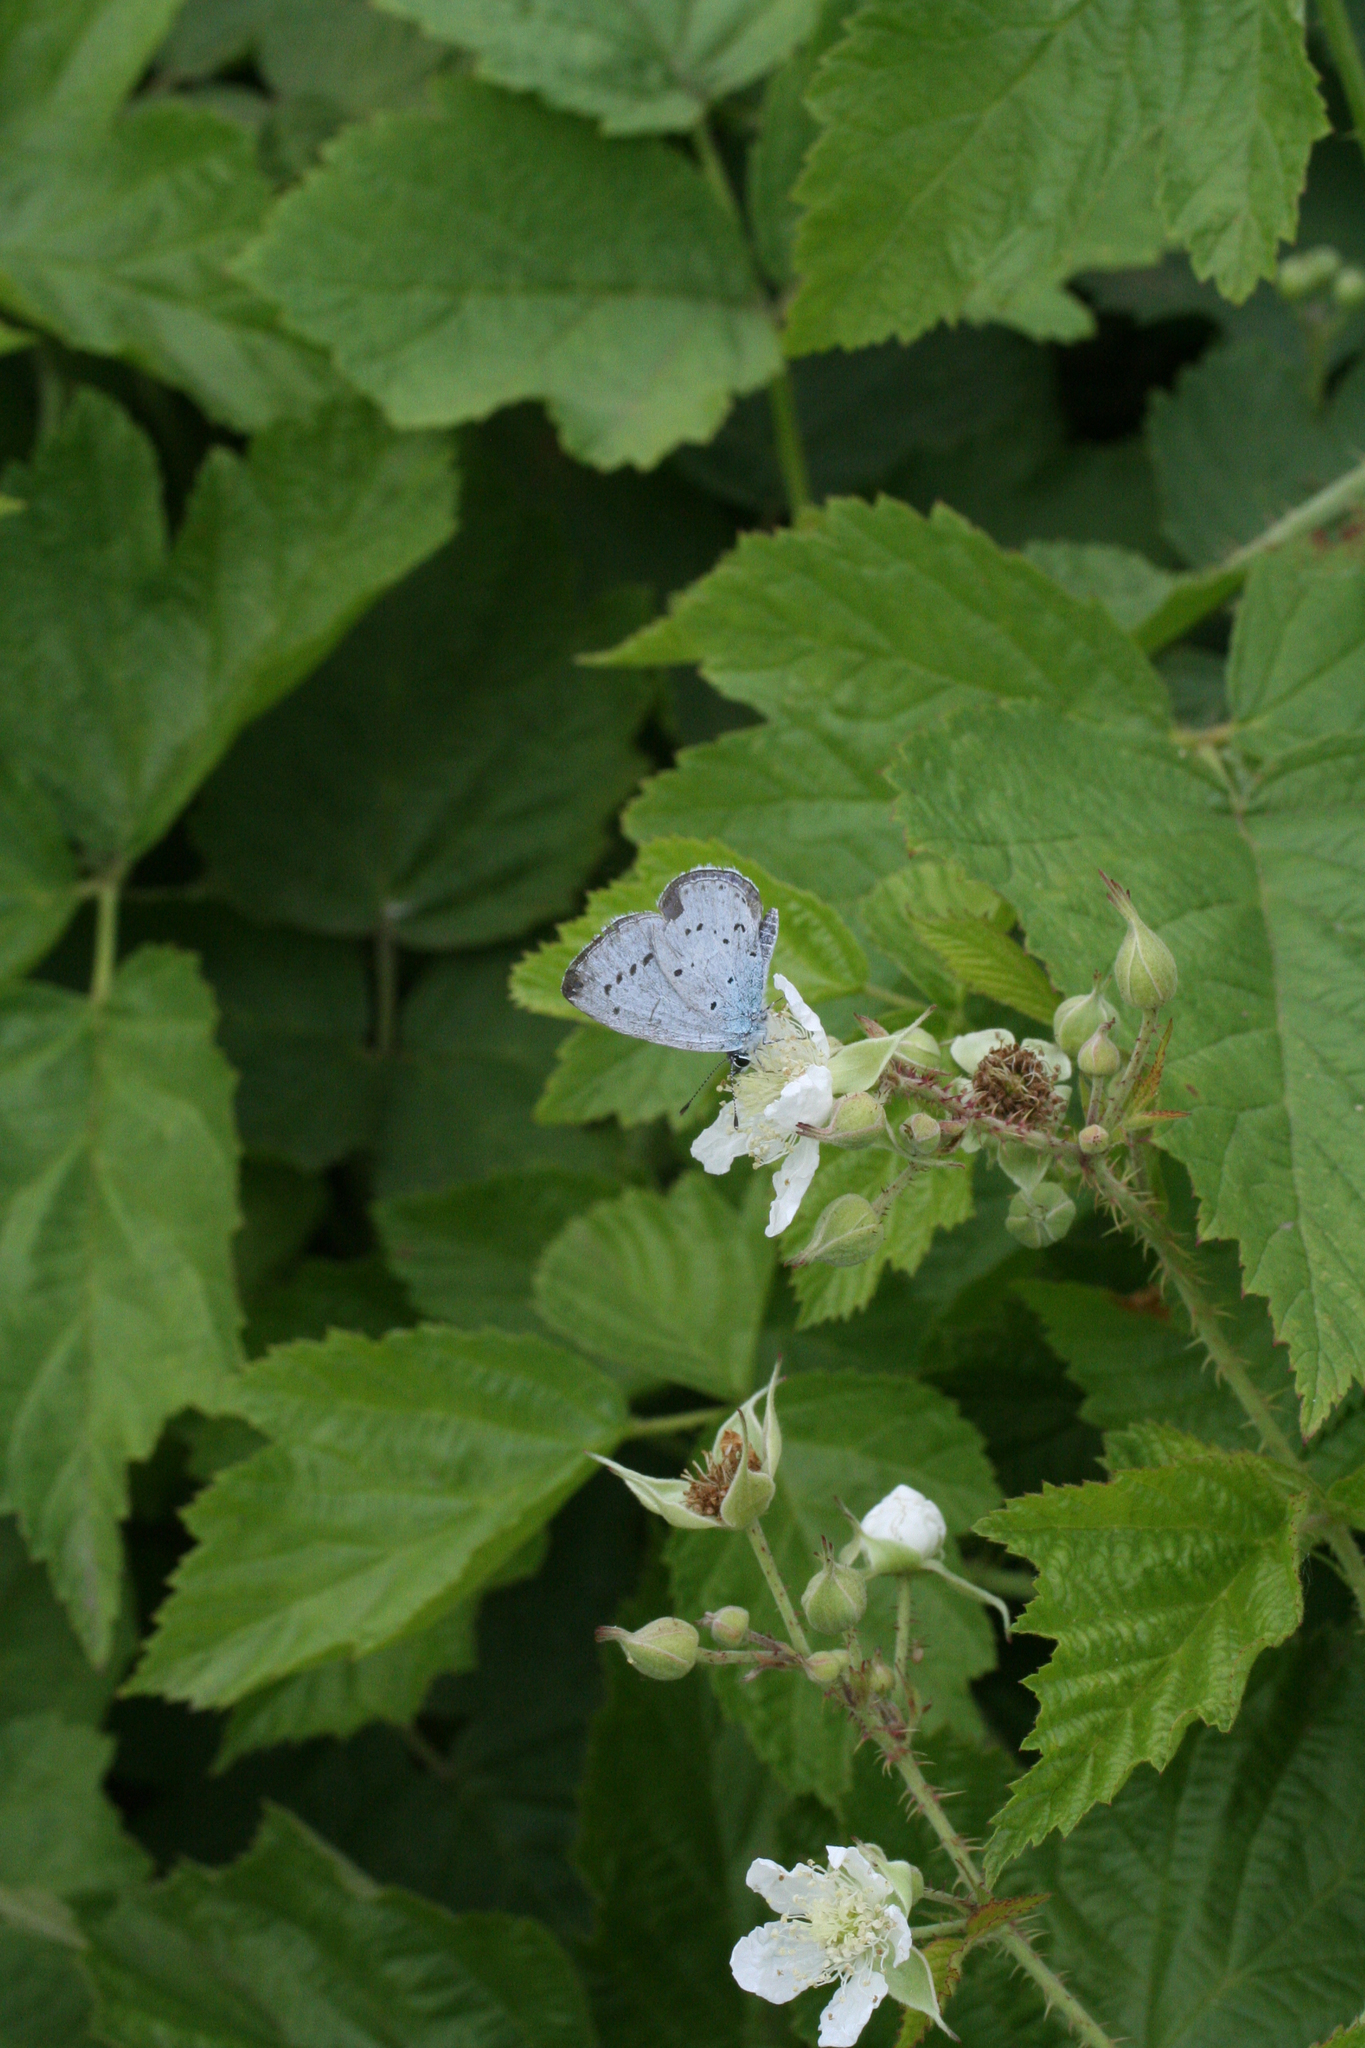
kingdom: Plantae
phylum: Tracheophyta
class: Magnoliopsida
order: Rosales
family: Rosaceae
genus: Rubus
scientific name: Rubus caesius
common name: Dewberry
